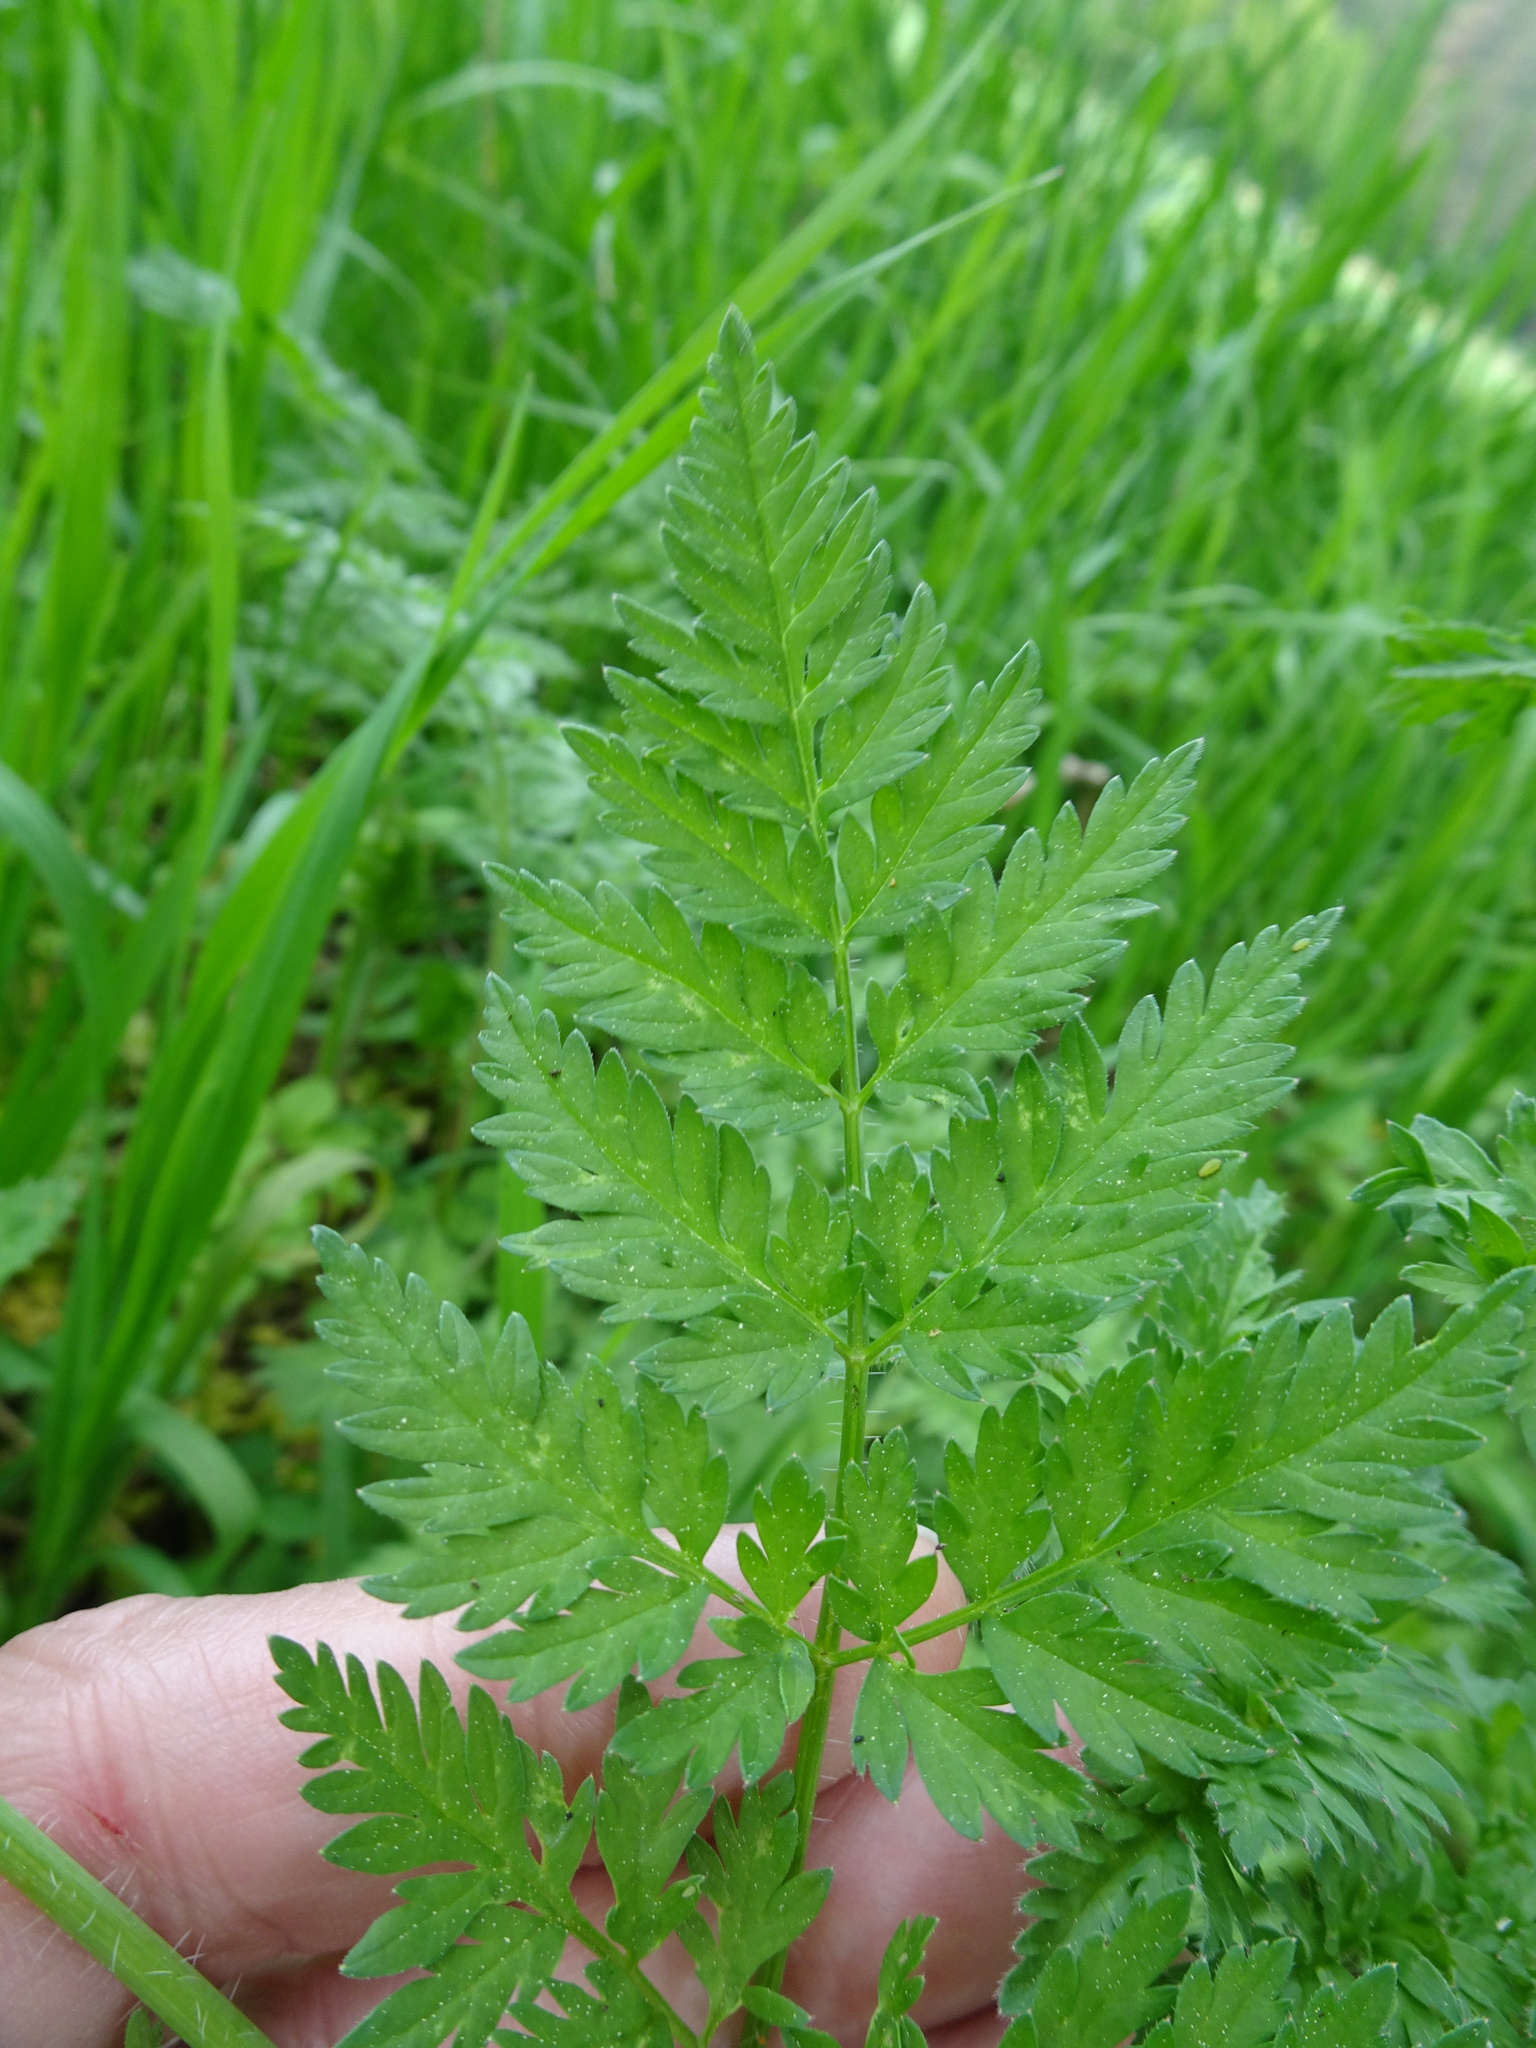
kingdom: Plantae
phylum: Tracheophyta
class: Magnoliopsida
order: Apiales
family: Apiaceae
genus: Chaerophyllum
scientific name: Chaerophyllum bulbosum
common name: Bulbous chervil
